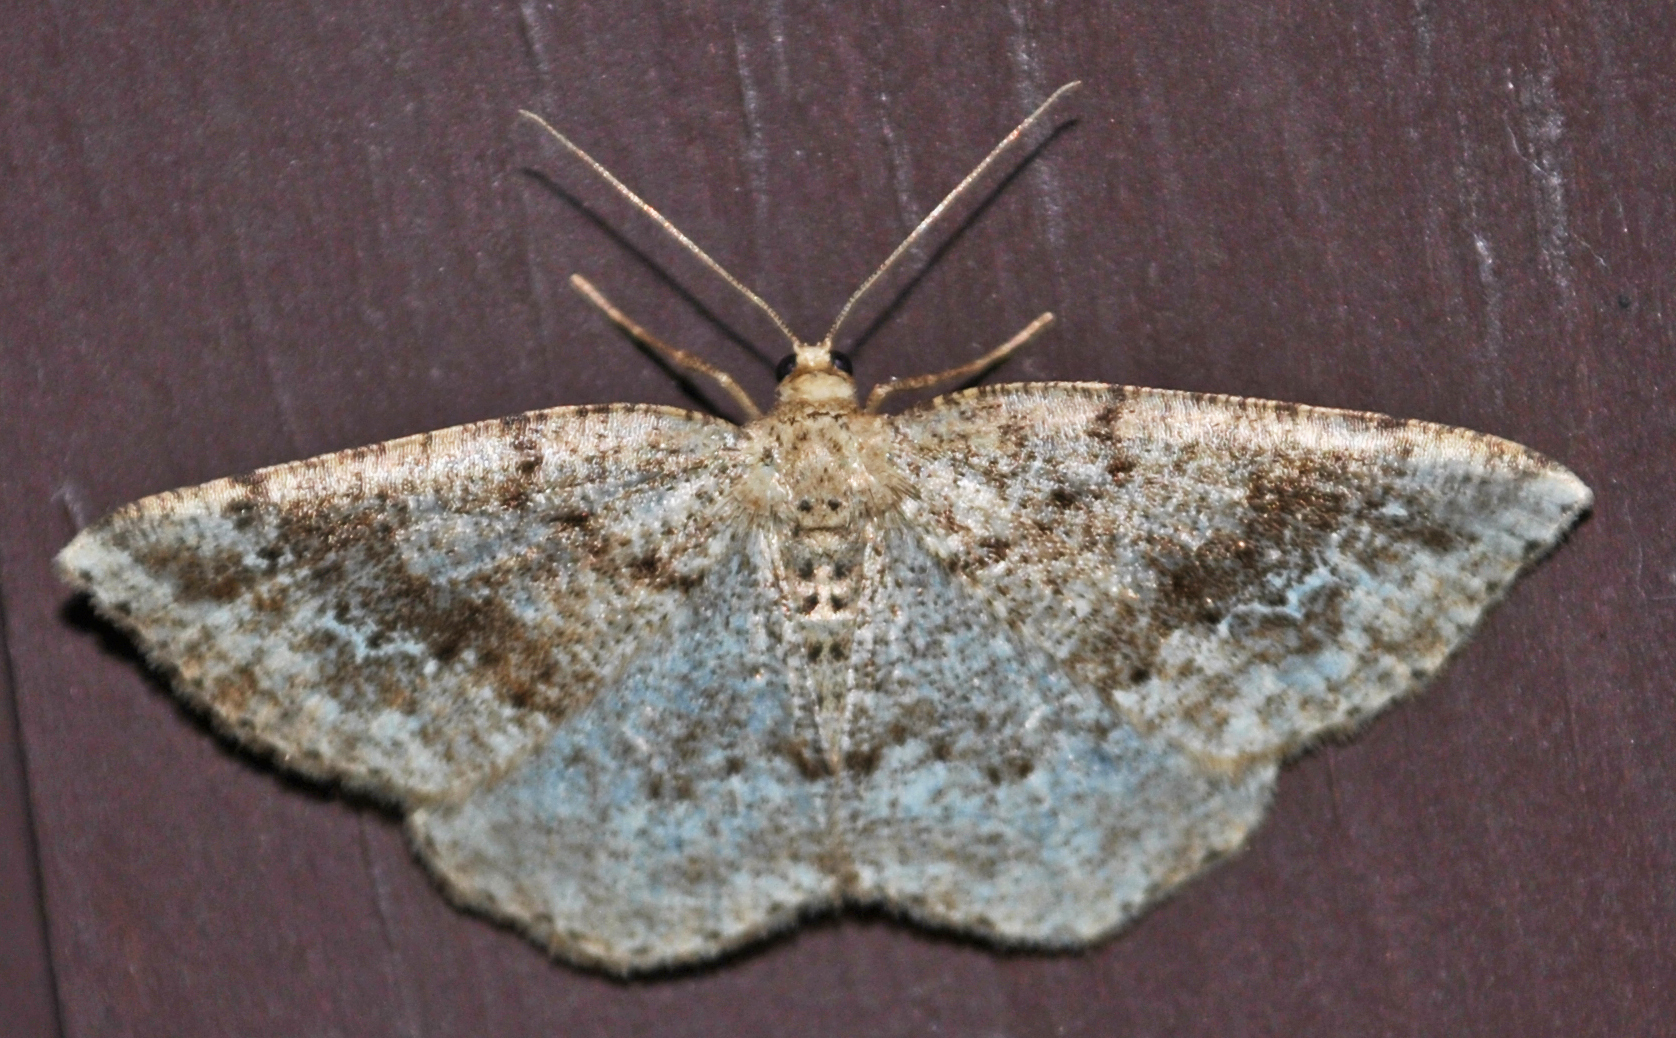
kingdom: Animalia
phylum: Arthropoda
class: Insecta
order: Lepidoptera
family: Geometridae
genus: Homochlodes
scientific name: Homochlodes fritillaria
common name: Pale homochlodes
